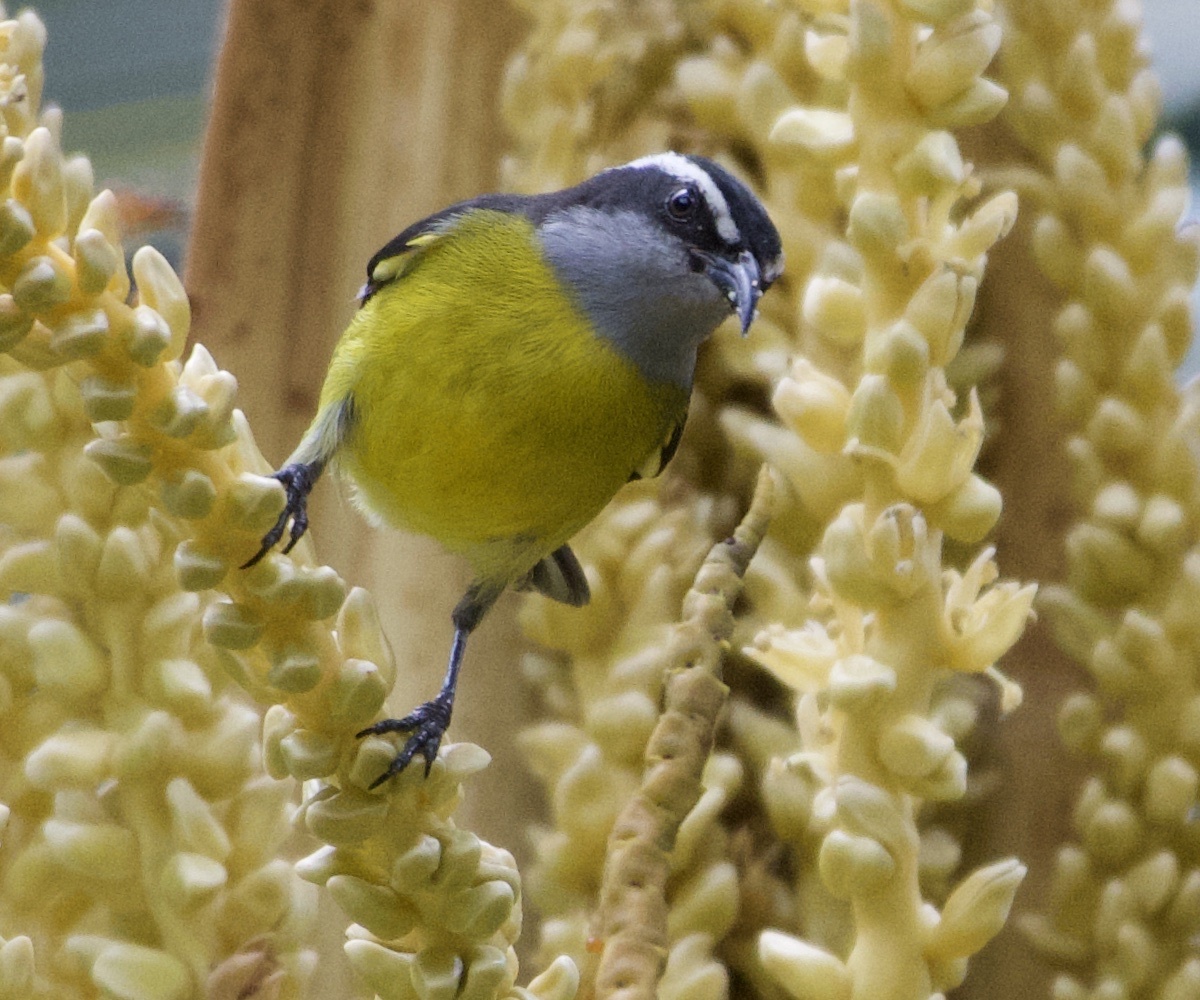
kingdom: Animalia
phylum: Chordata
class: Aves
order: Passeriformes
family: Thraupidae
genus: Coereba
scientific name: Coereba flaveola
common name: Bananaquit
